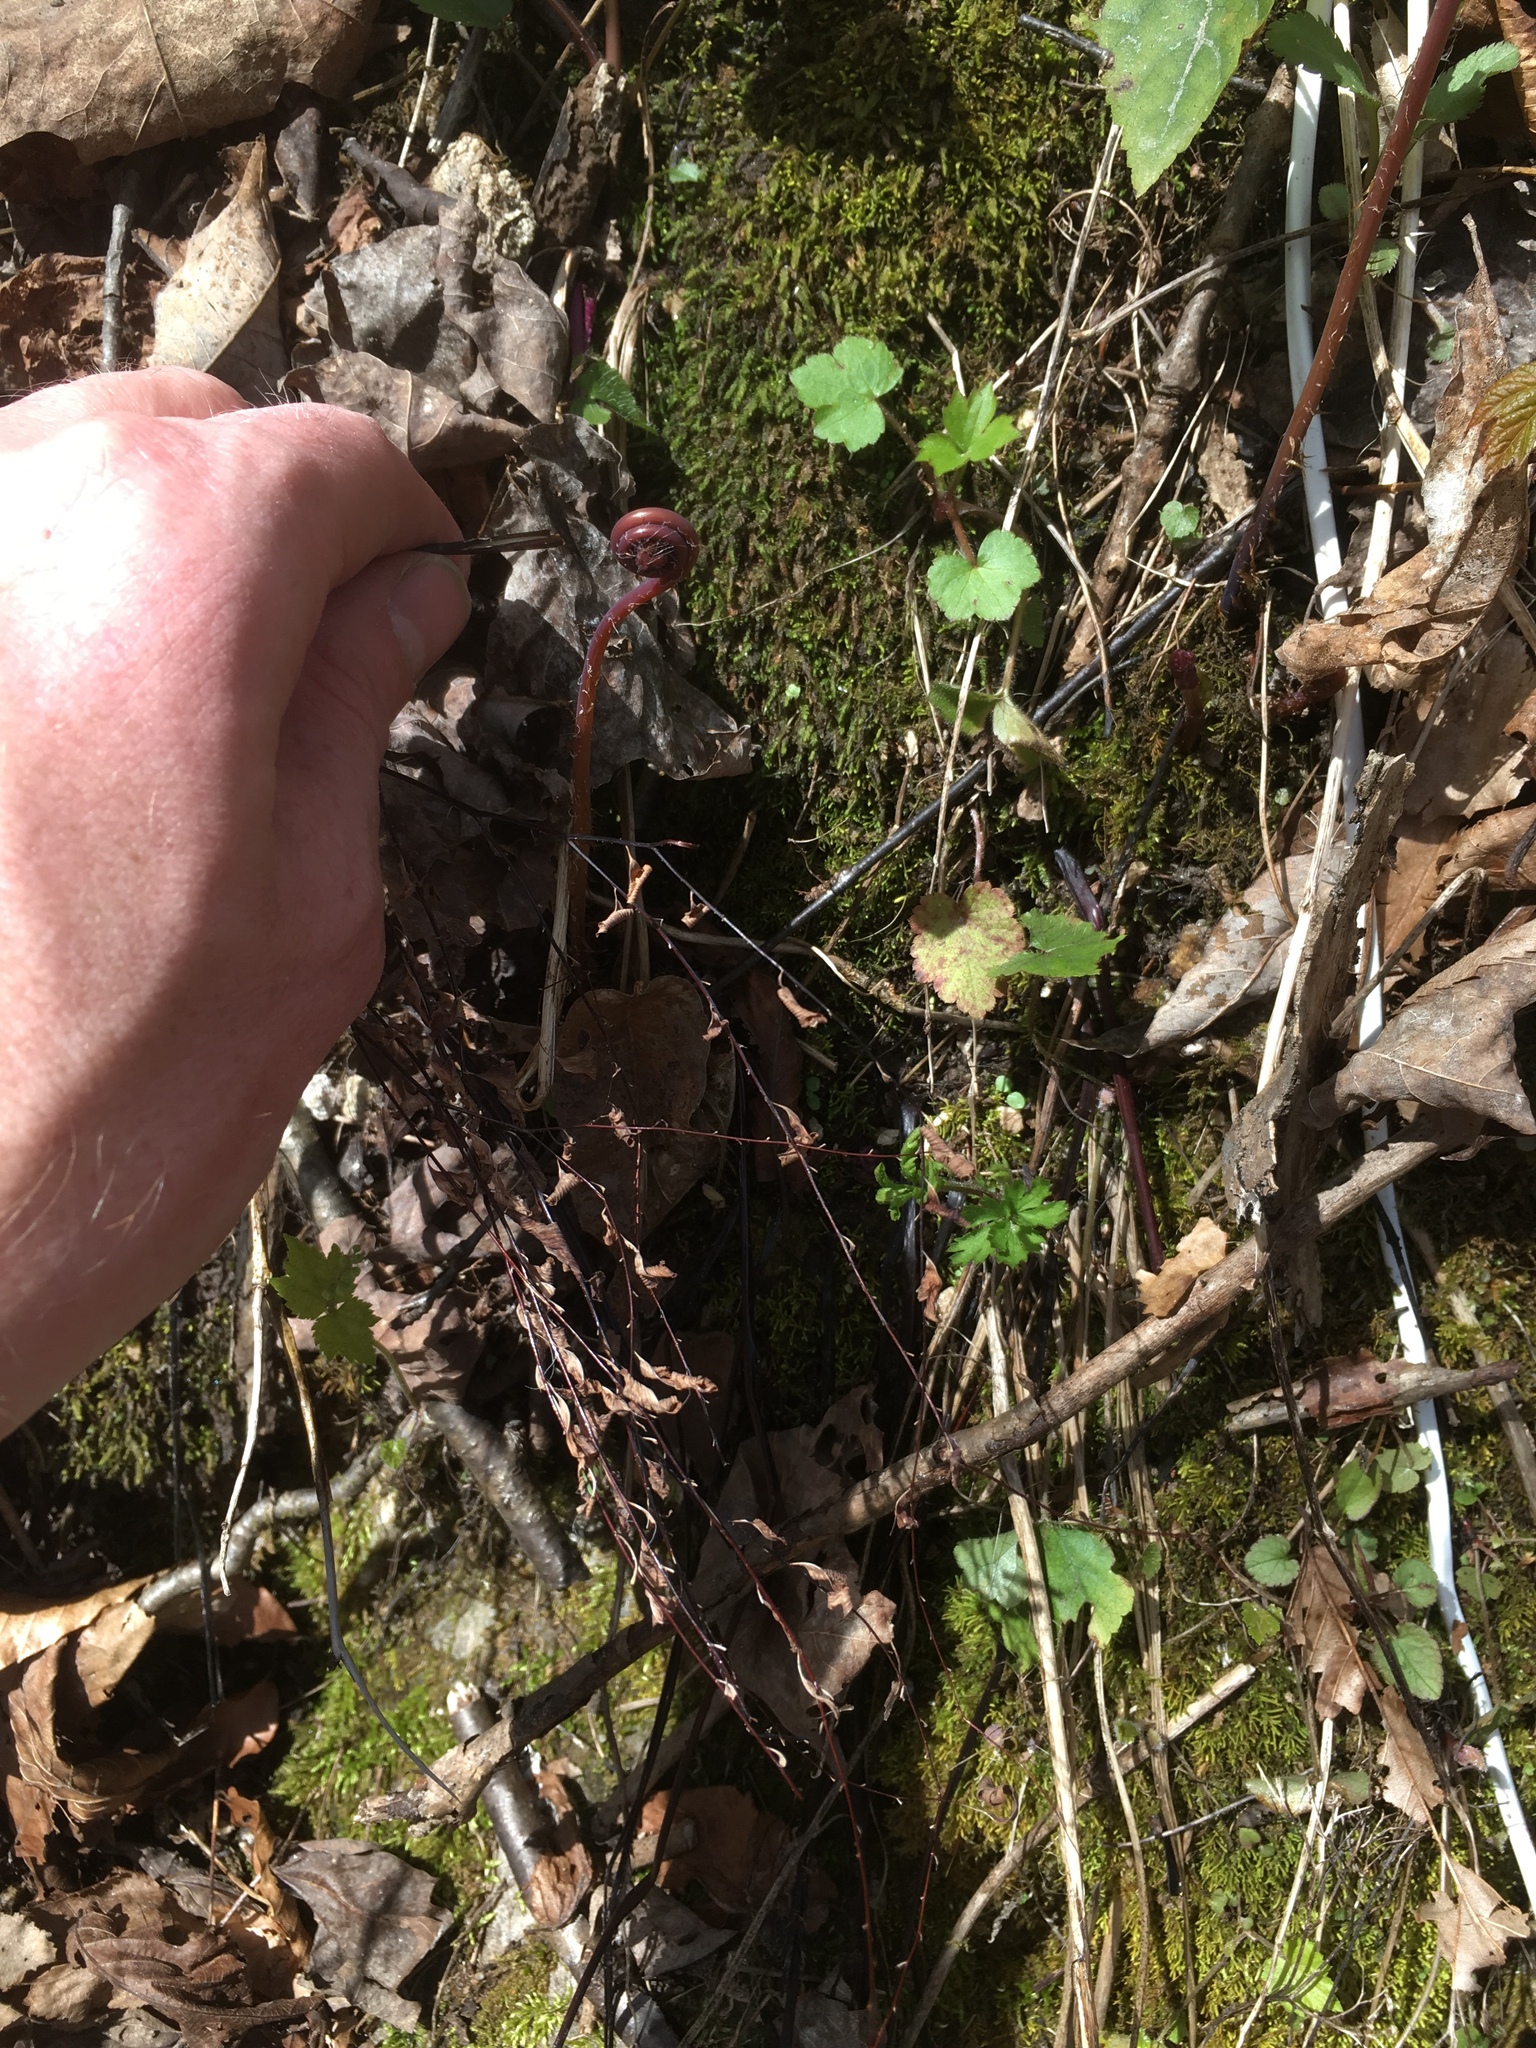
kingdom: Plantae
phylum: Tracheophyta
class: Polypodiopsida
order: Polypodiales
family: Pteridaceae
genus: Adiantum
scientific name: Adiantum pedatum
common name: Five-finger fern
